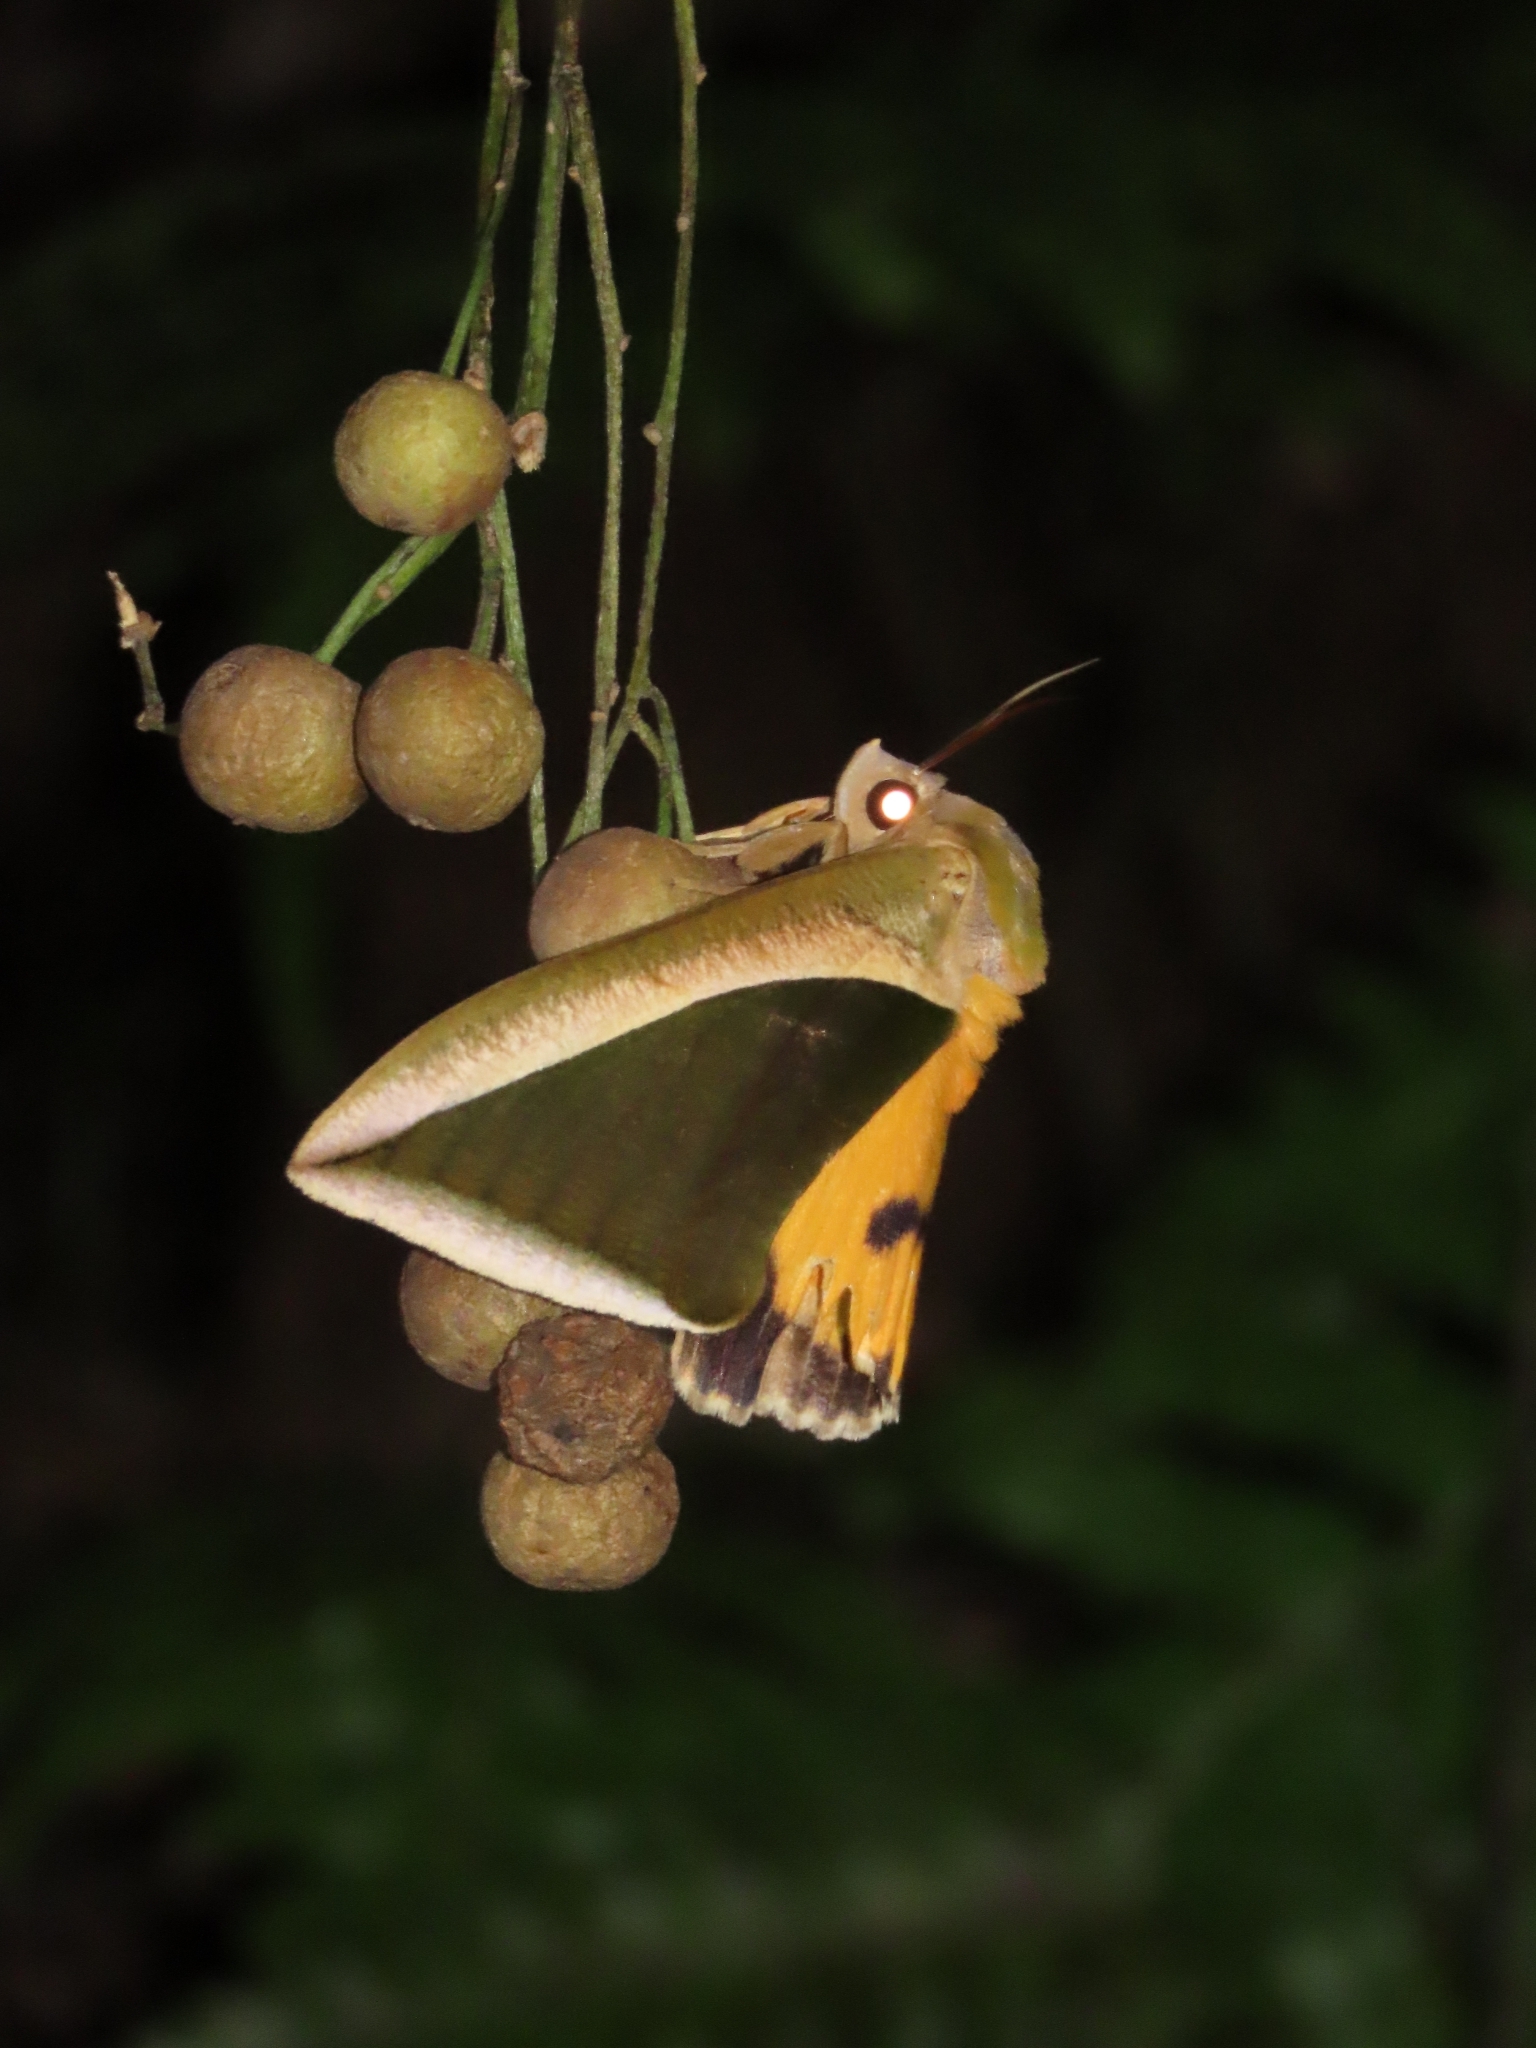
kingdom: Animalia
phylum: Arthropoda
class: Insecta
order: Lepidoptera
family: Erebidae
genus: Eudocima
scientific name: Eudocima salaminia
